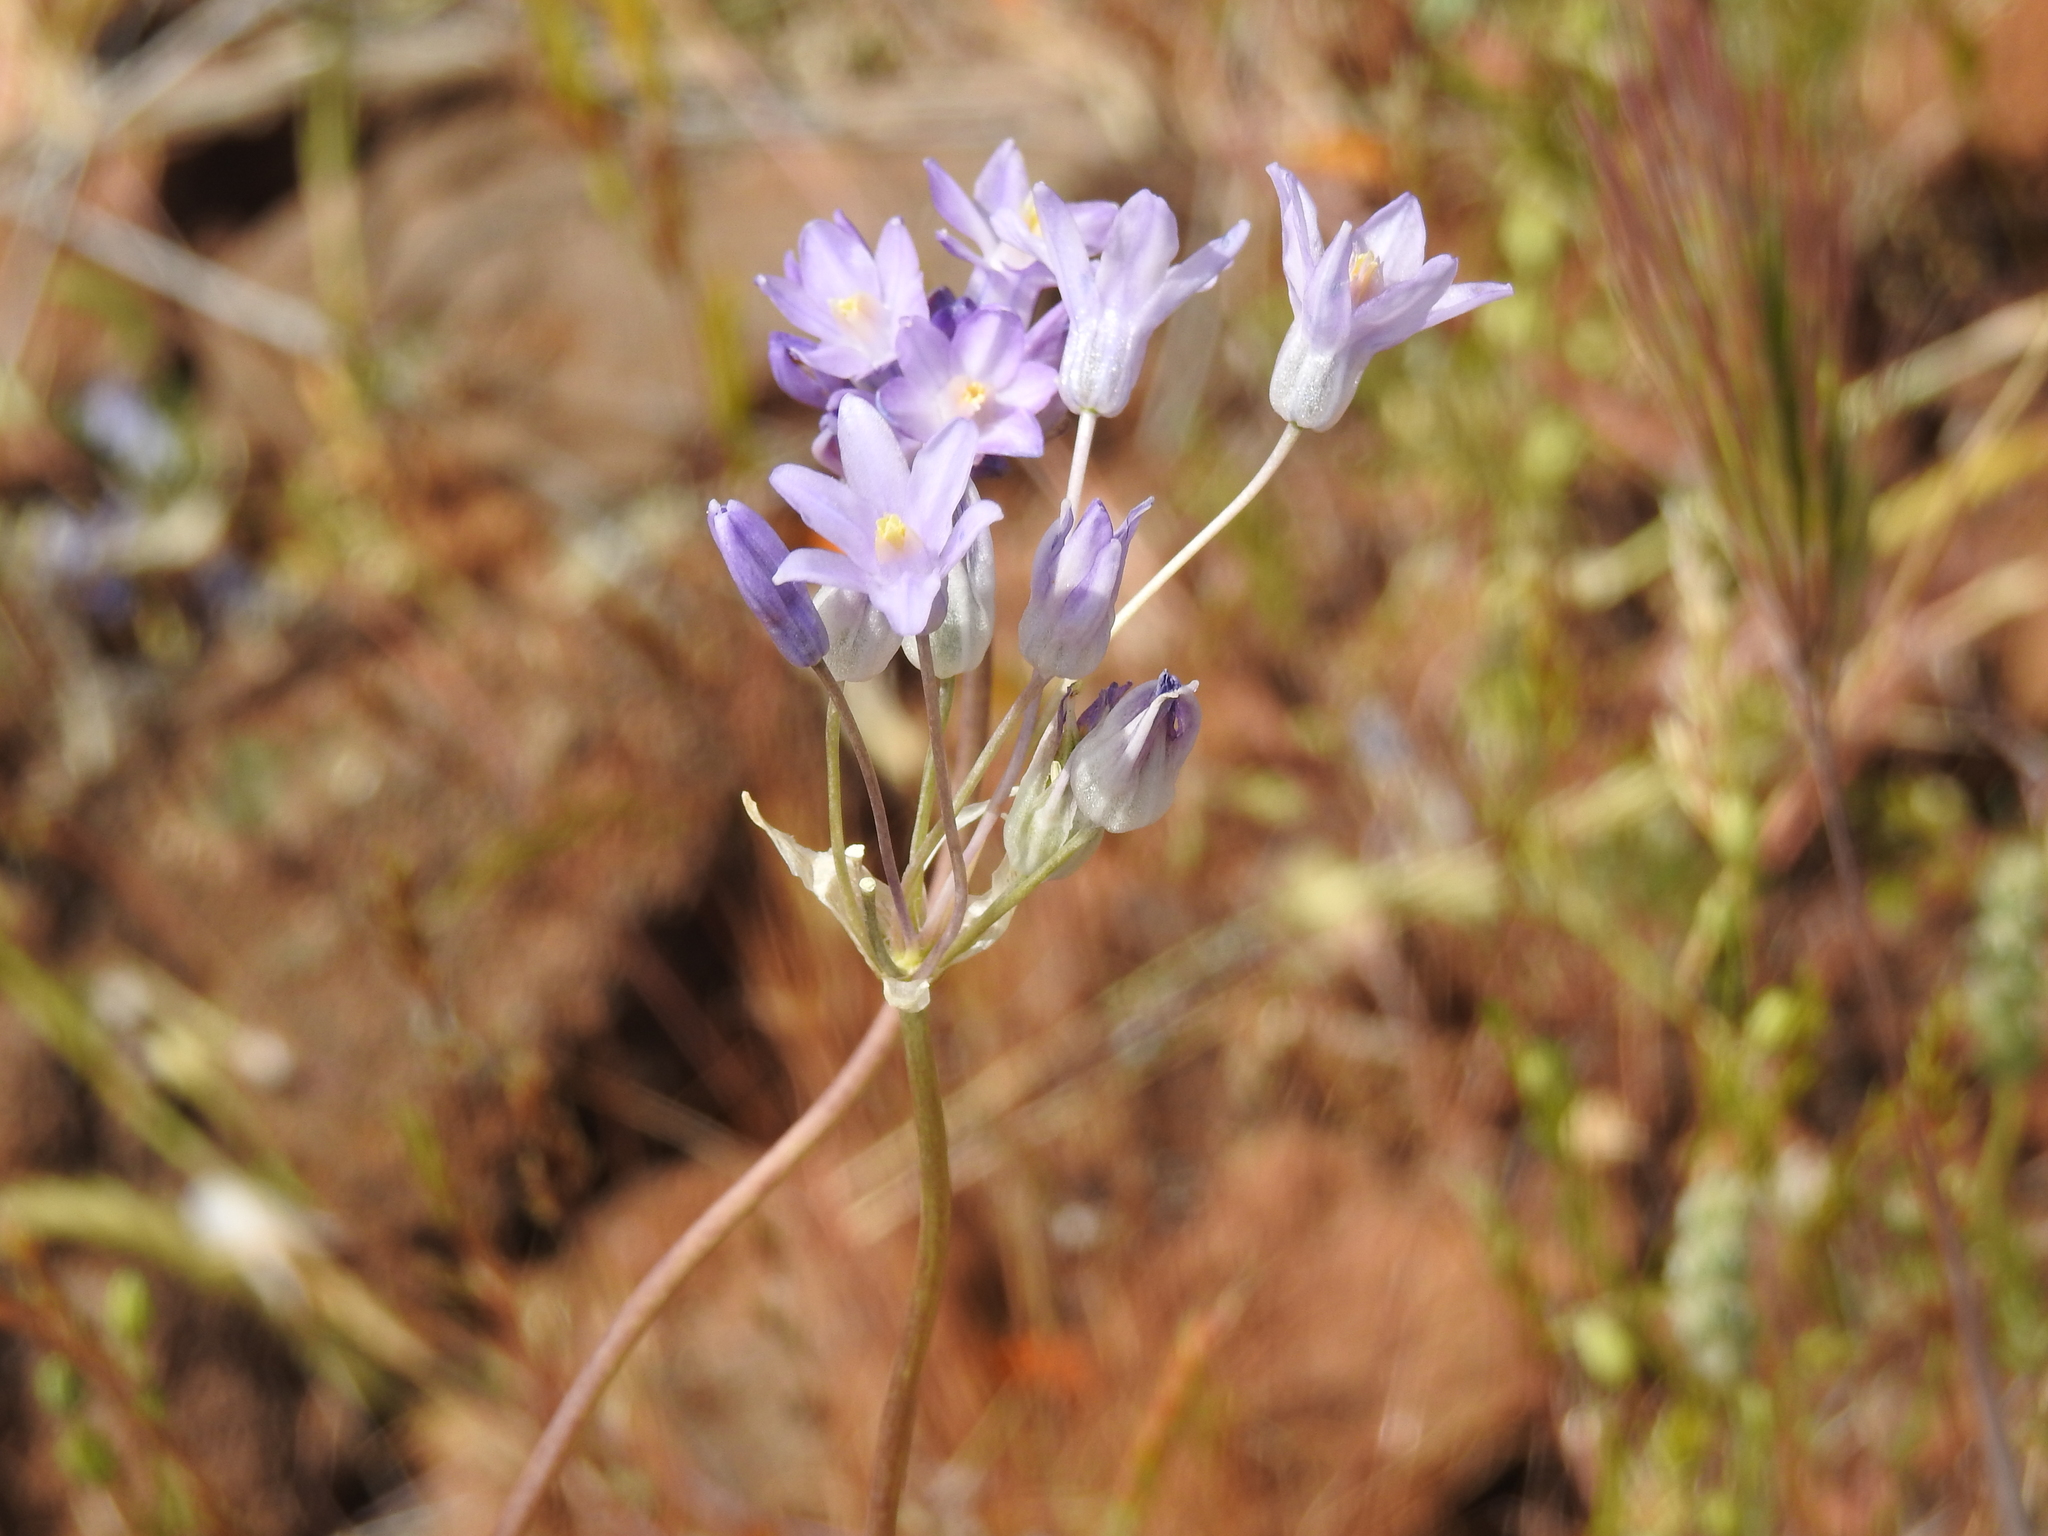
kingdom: Plantae
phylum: Tracheophyta
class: Liliopsida
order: Asparagales
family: Asparagaceae
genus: Dipterostemon
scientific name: Dipterostemon capitatus
